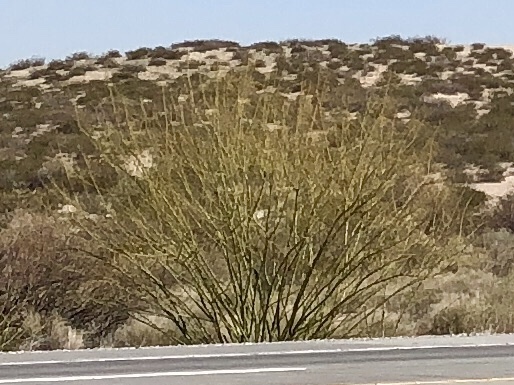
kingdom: Plantae
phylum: Tracheophyta
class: Magnoliopsida
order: Fabales
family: Fabaceae
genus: Parkinsonia
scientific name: Parkinsonia aculeata
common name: Jerusalem thorn
